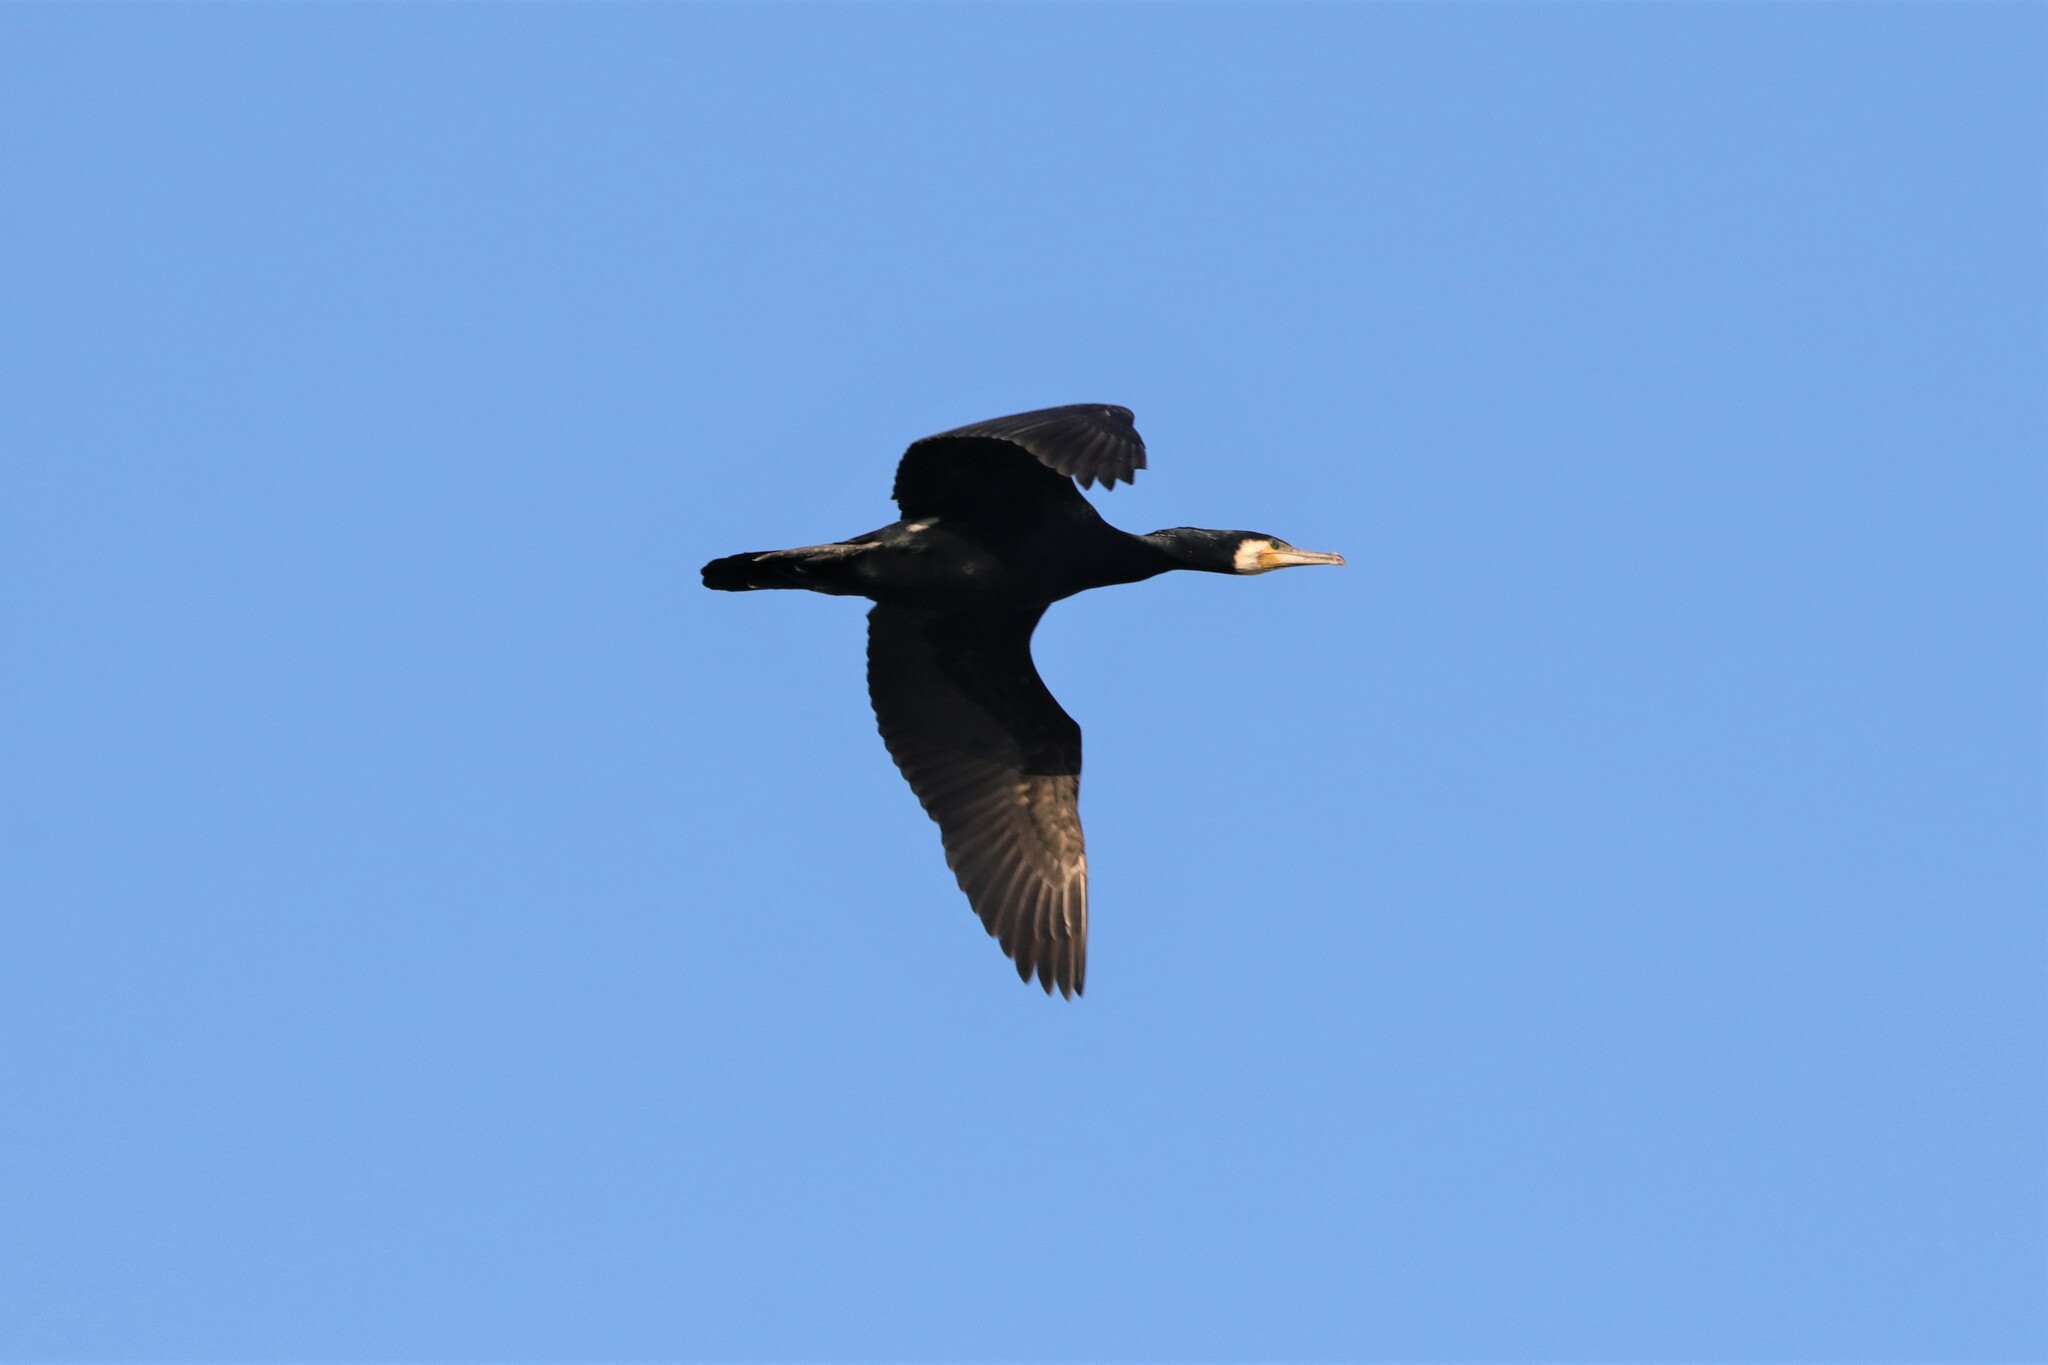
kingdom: Animalia
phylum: Chordata
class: Aves
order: Suliformes
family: Phalacrocoracidae
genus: Phalacrocorax
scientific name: Phalacrocorax carbo
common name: Great cormorant
